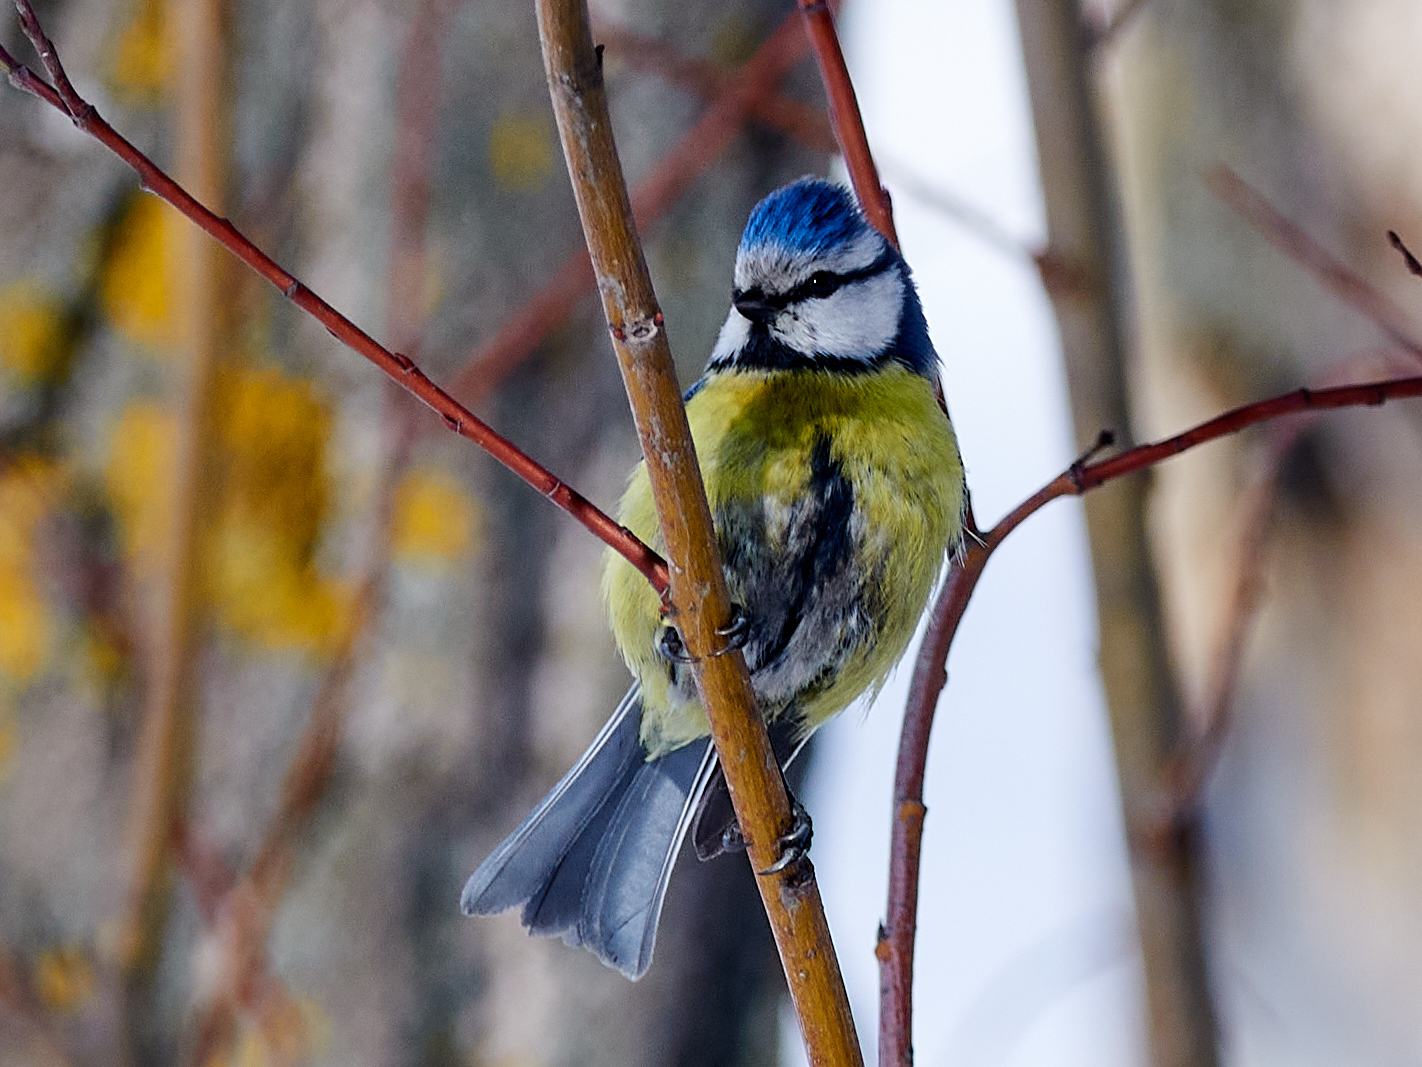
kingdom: Animalia
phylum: Chordata
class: Aves
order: Passeriformes
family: Paridae
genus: Cyanistes
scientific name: Cyanistes caeruleus
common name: Eurasian blue tit
